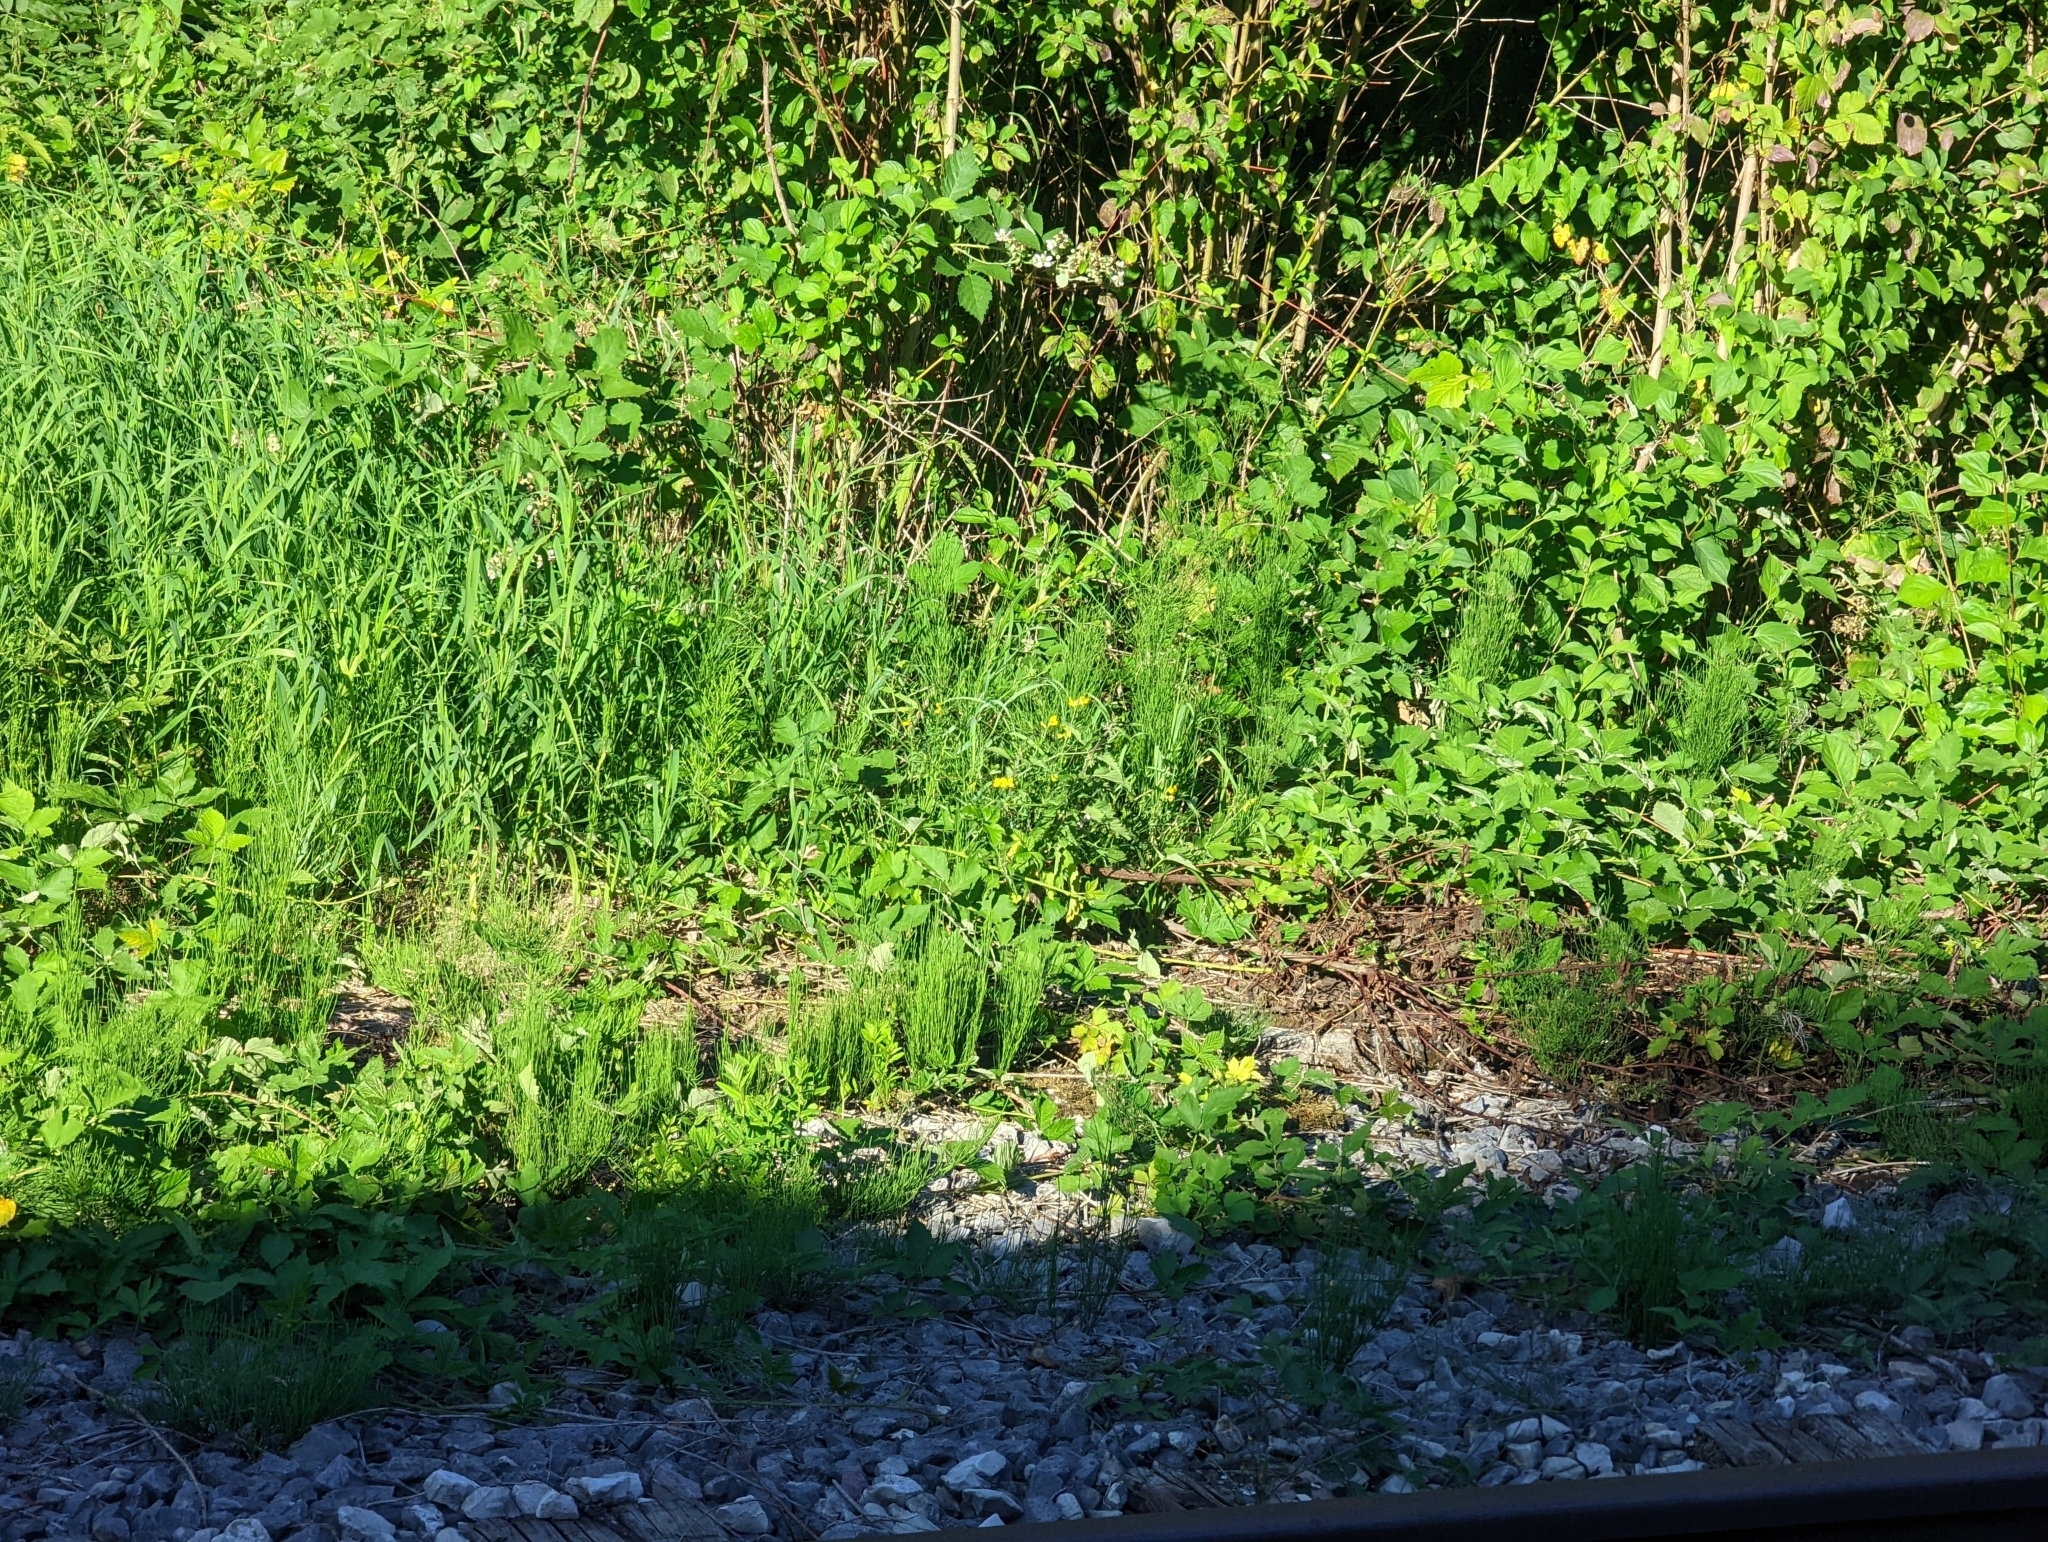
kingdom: Plantae
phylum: Tracheophyta
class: Polypodiopsida
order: Equisetales
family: Equisetaceae
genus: Equisetum
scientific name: Equisetum arvense
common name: Field horsetail
